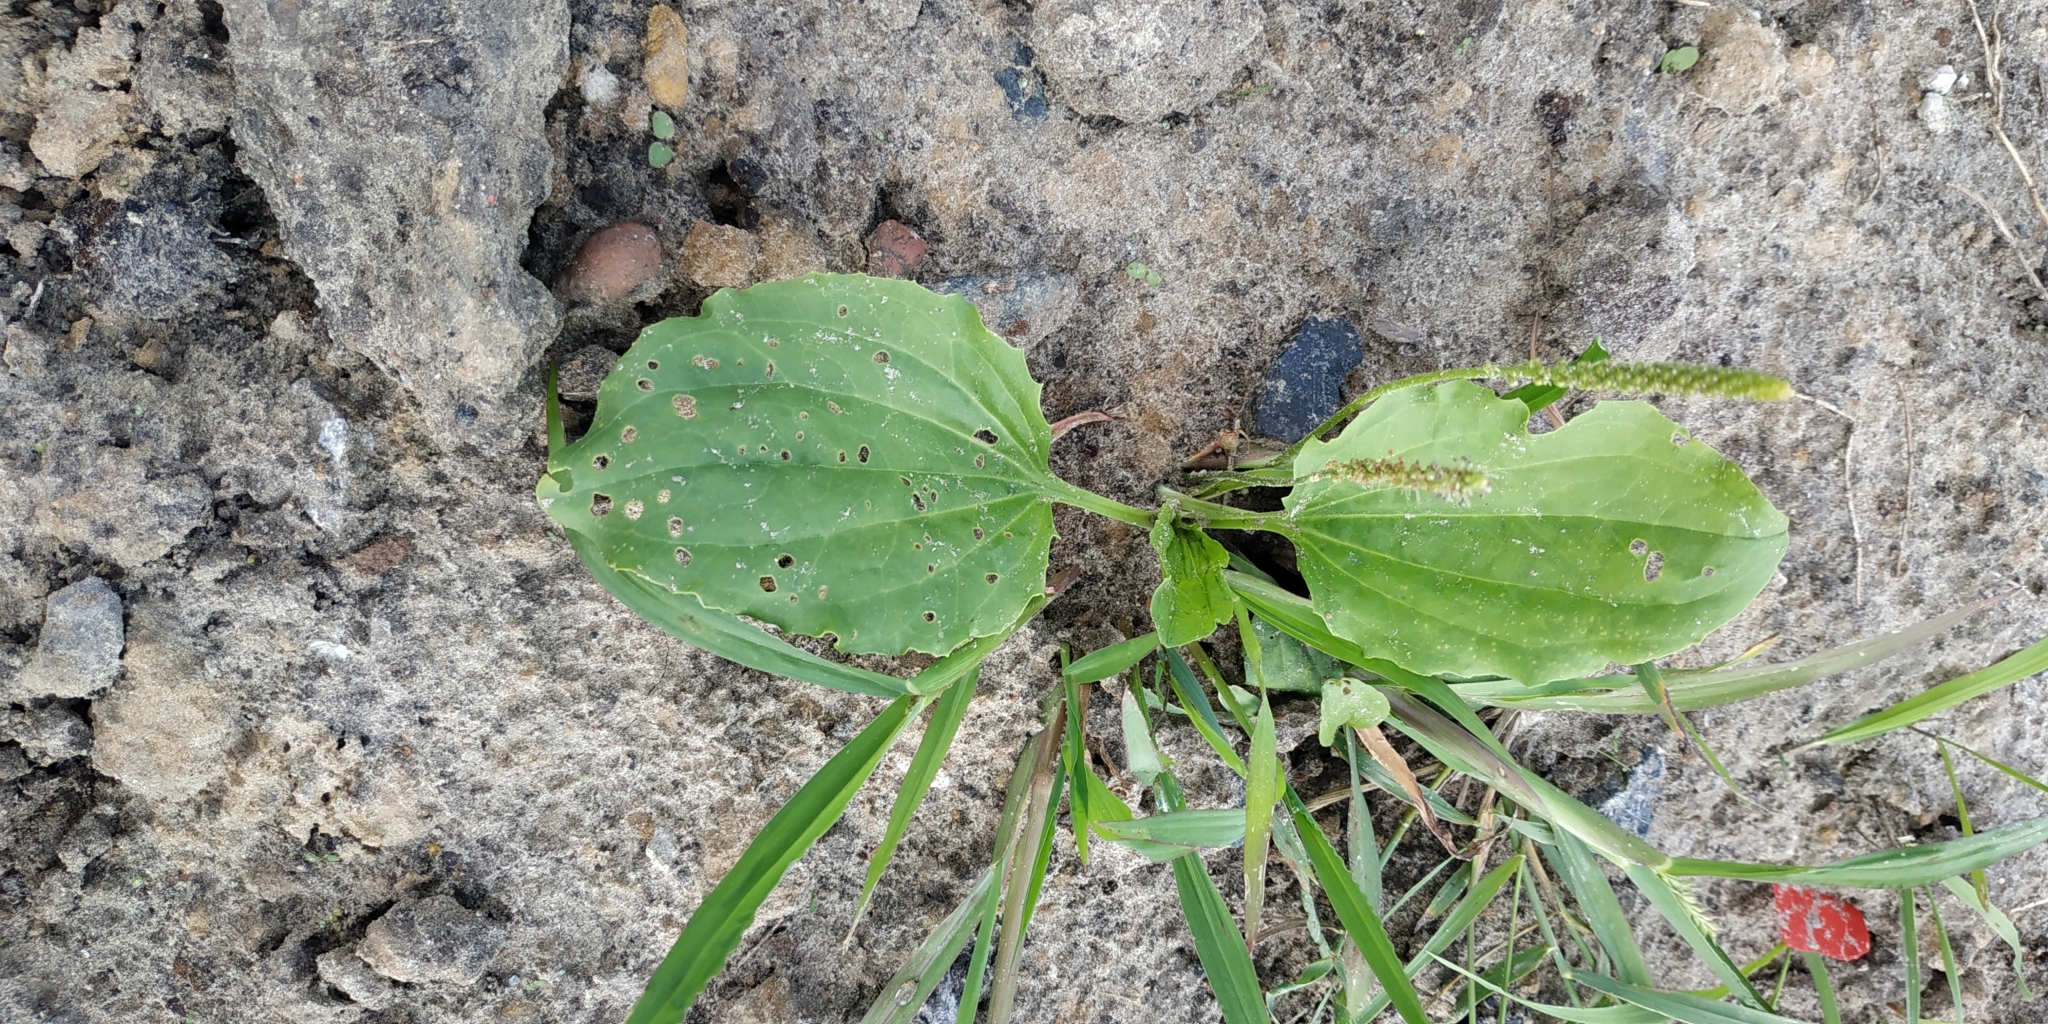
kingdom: Plantae
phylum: Tracheophyta
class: Magnoliopsida
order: Lamiales
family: Plantaginaceae
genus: Plantago
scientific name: Plantago major
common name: Common plantain
